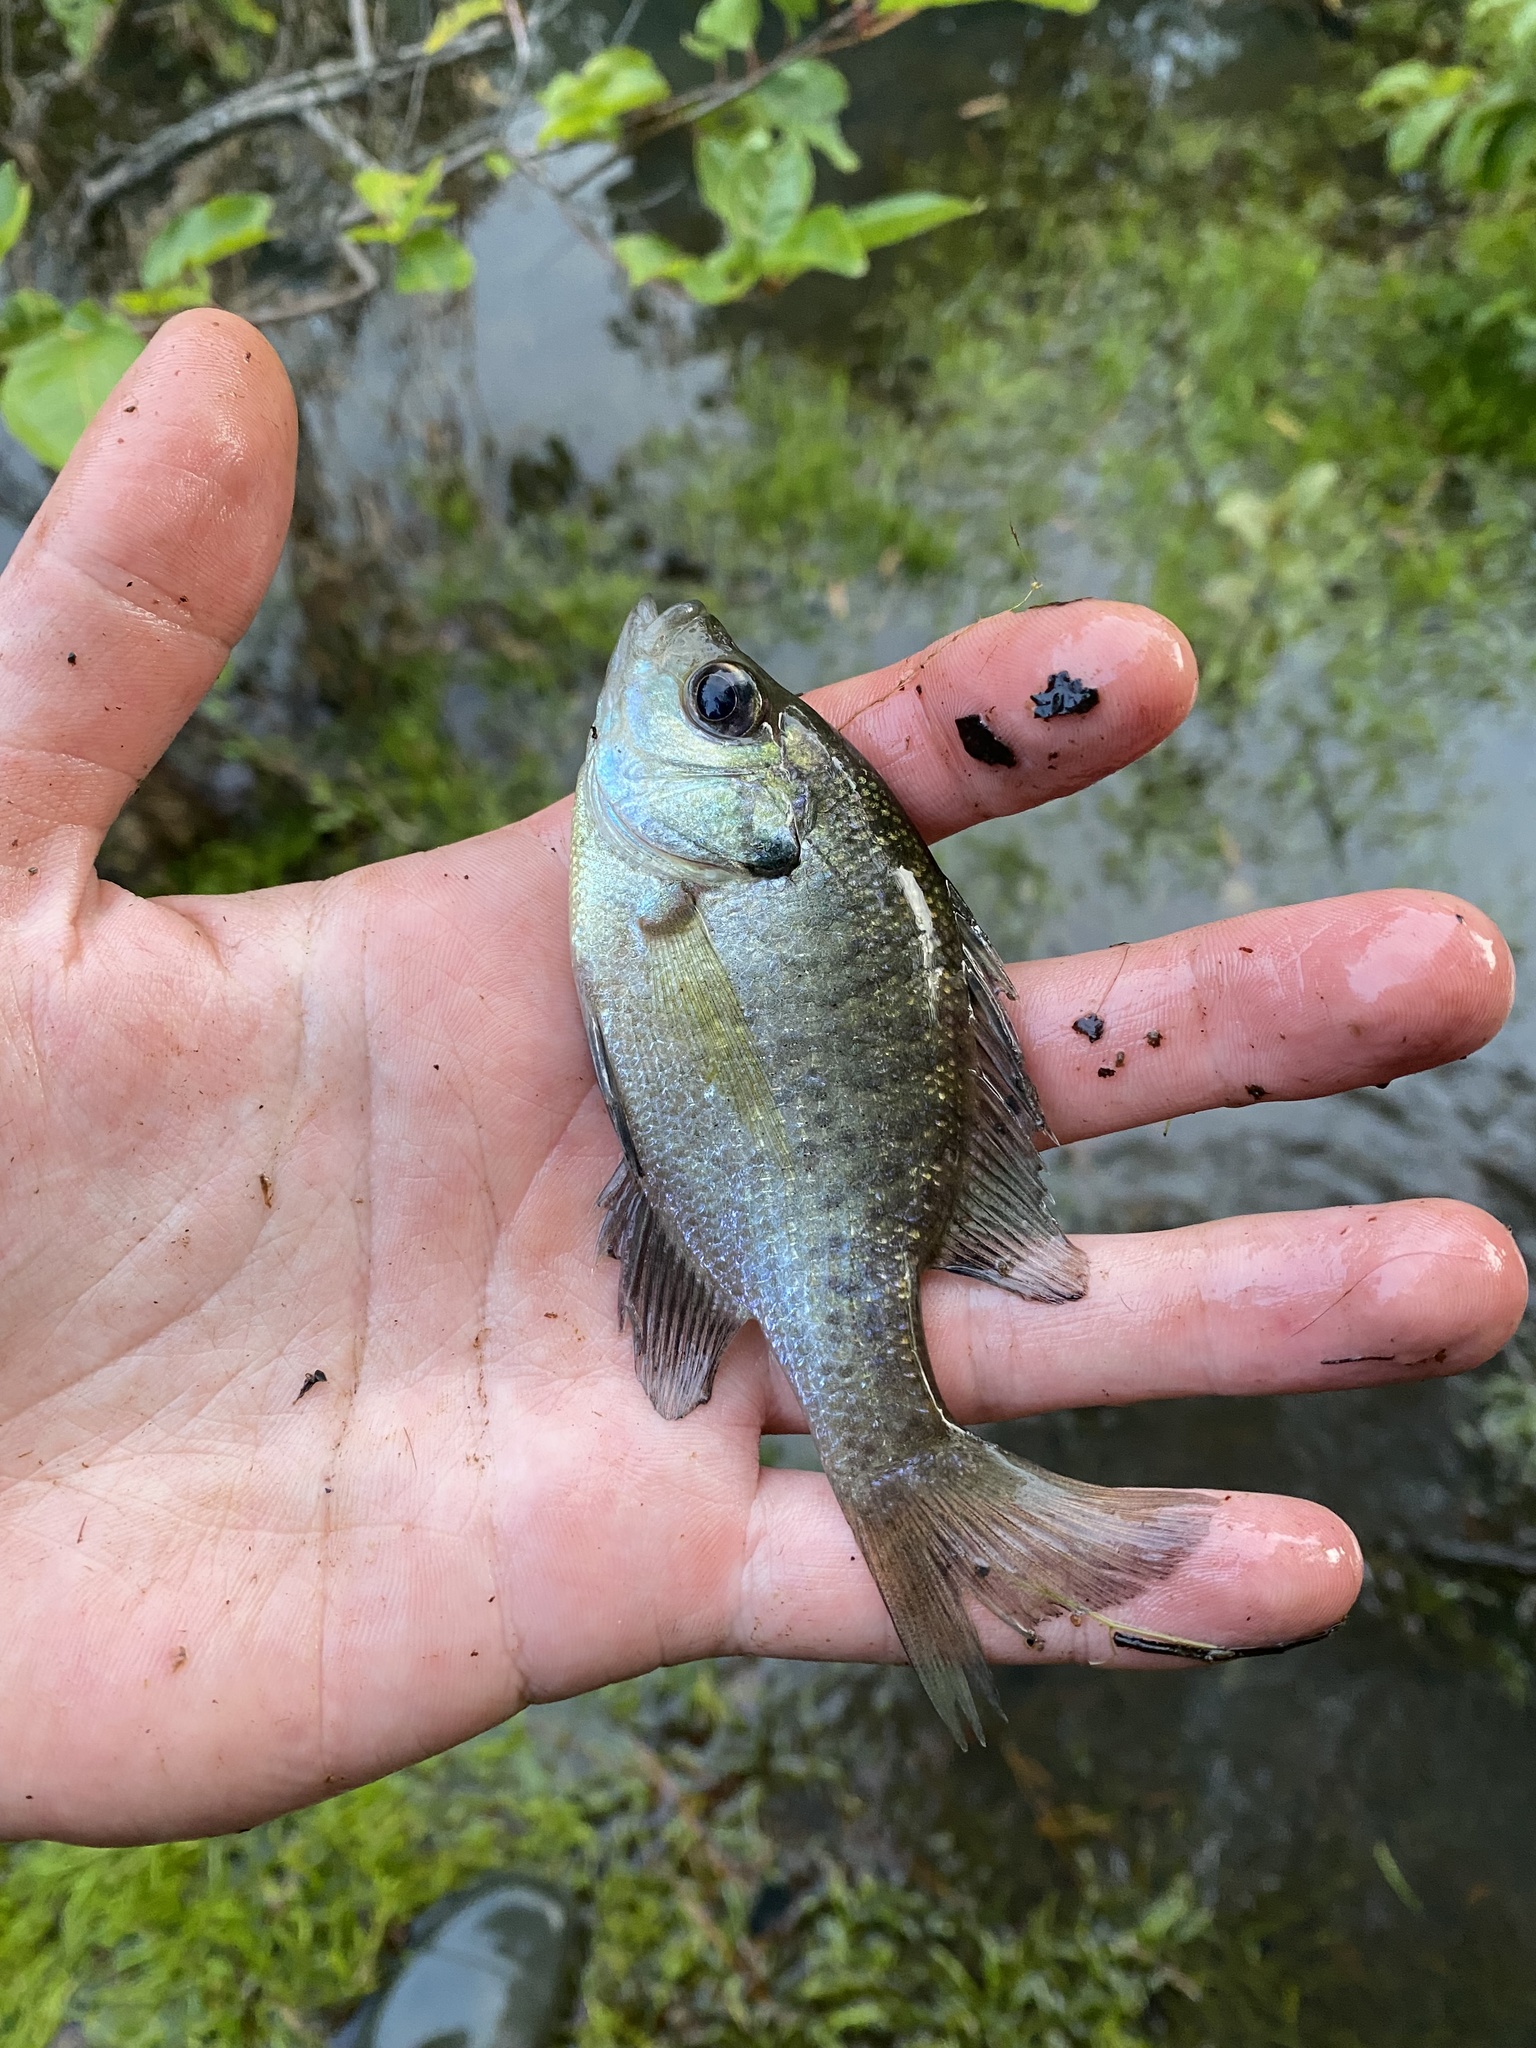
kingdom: Animalia
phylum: Chordata
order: Perciformes
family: Centrarchidae
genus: Lepomis
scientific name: Lepomis macrochirus
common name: Bluegill
